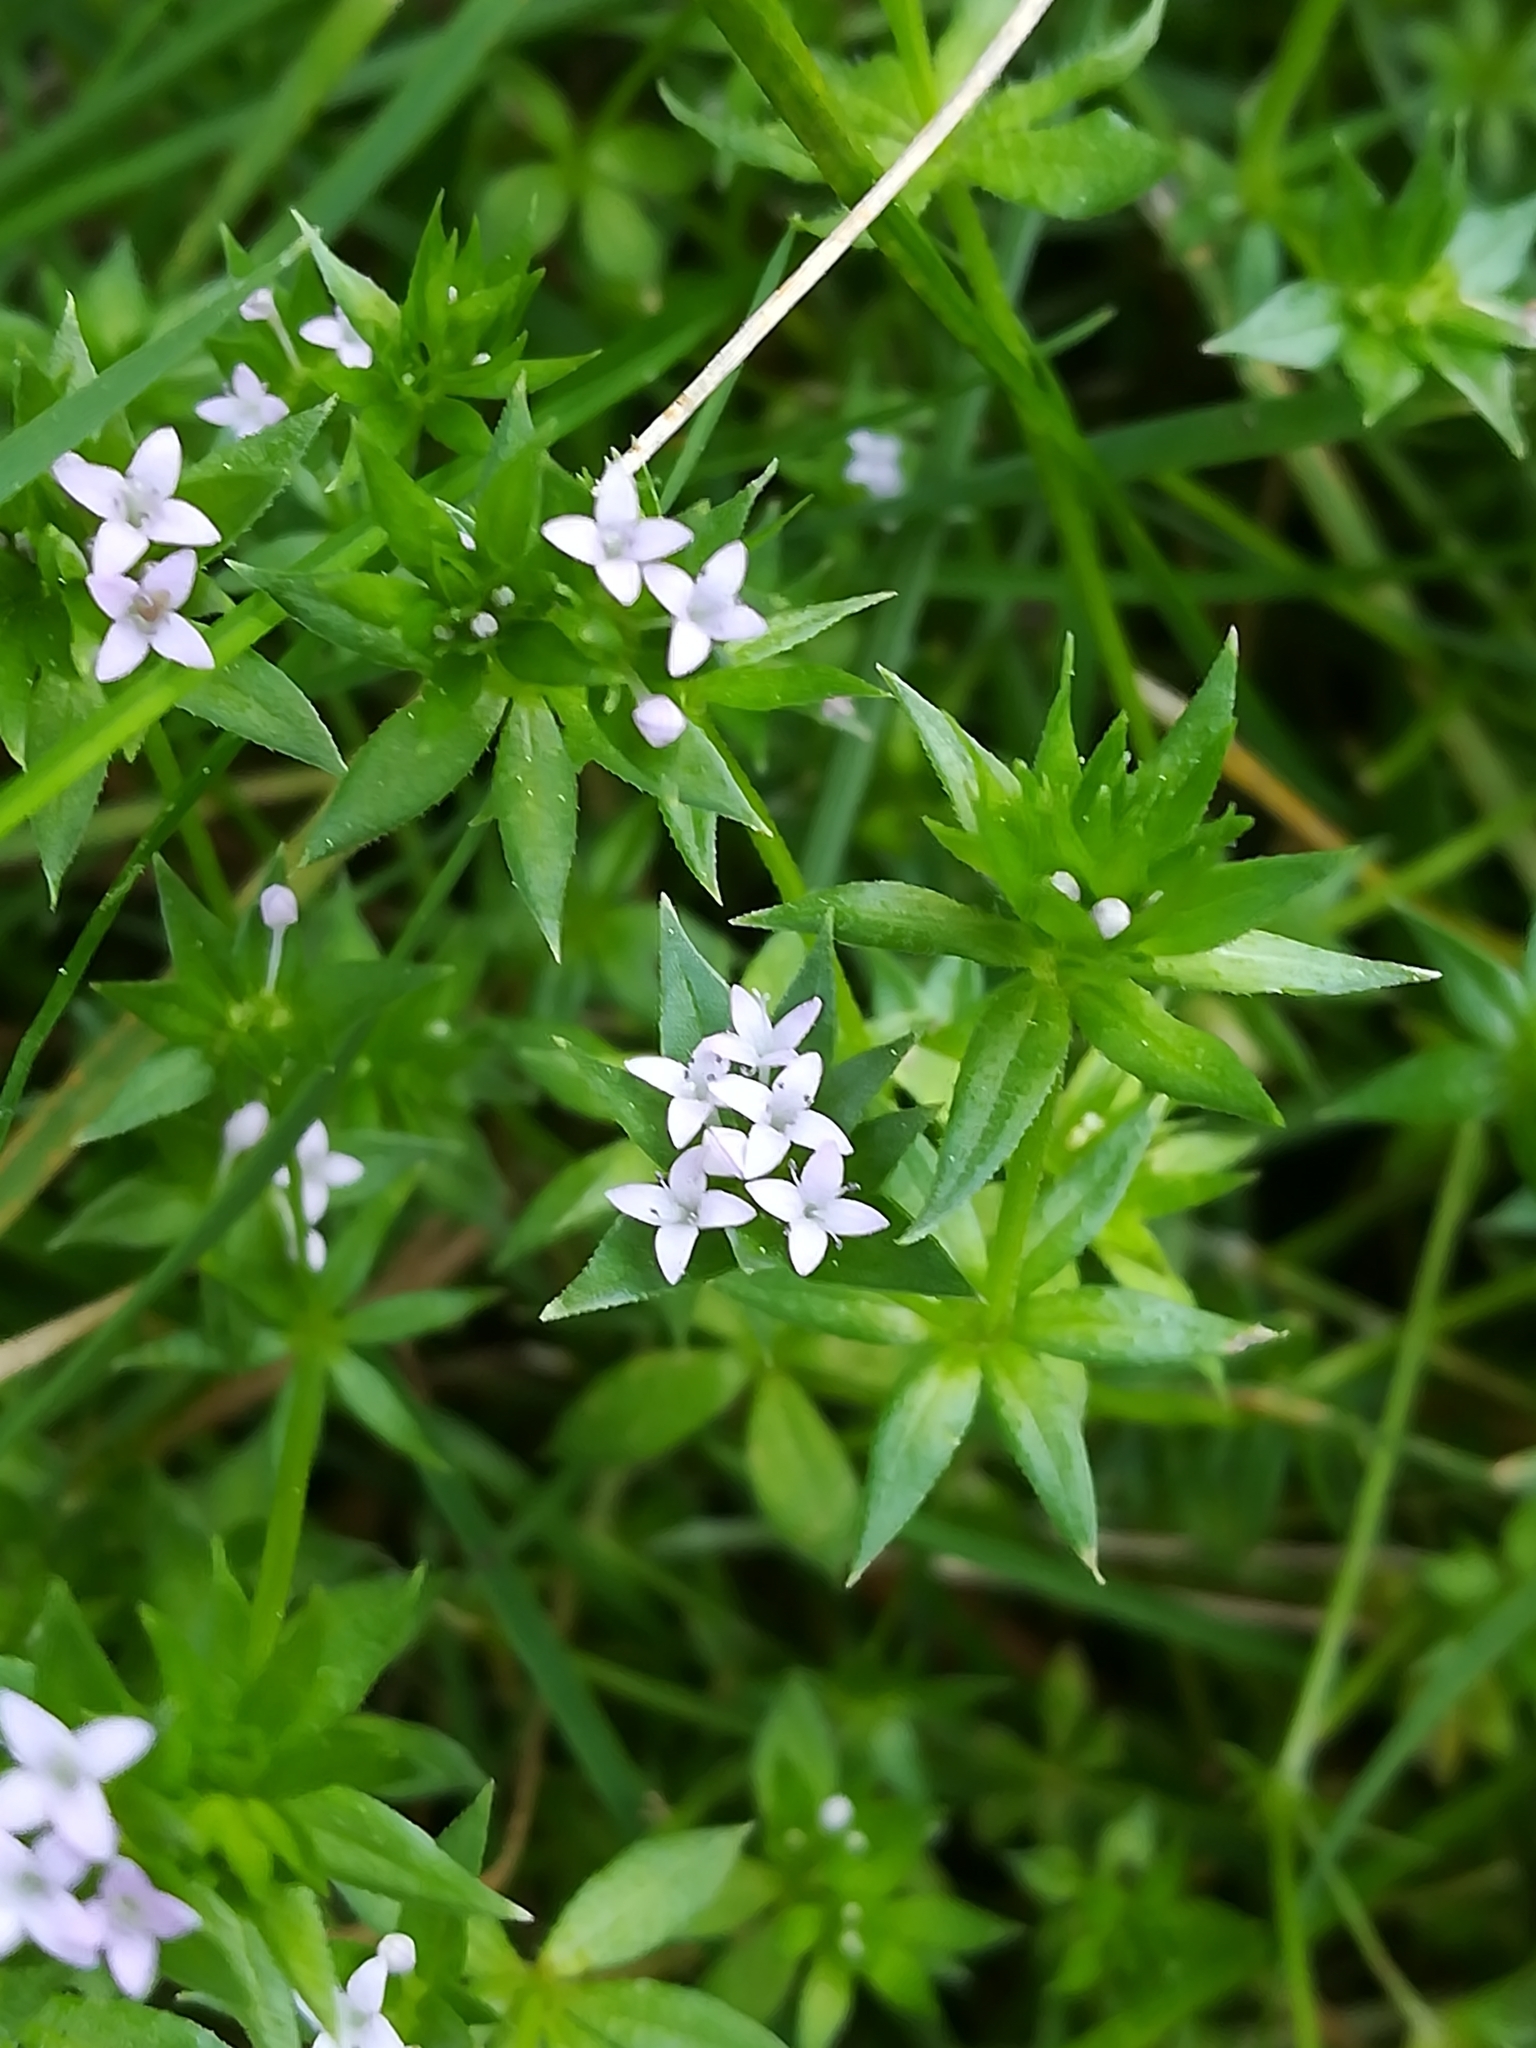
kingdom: Plantae
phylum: Tracheophyta
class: Magnoliopsida
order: Gentianales
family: Rubiaceae
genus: Sherardia
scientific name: Sherardia arvensis
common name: Field madder
